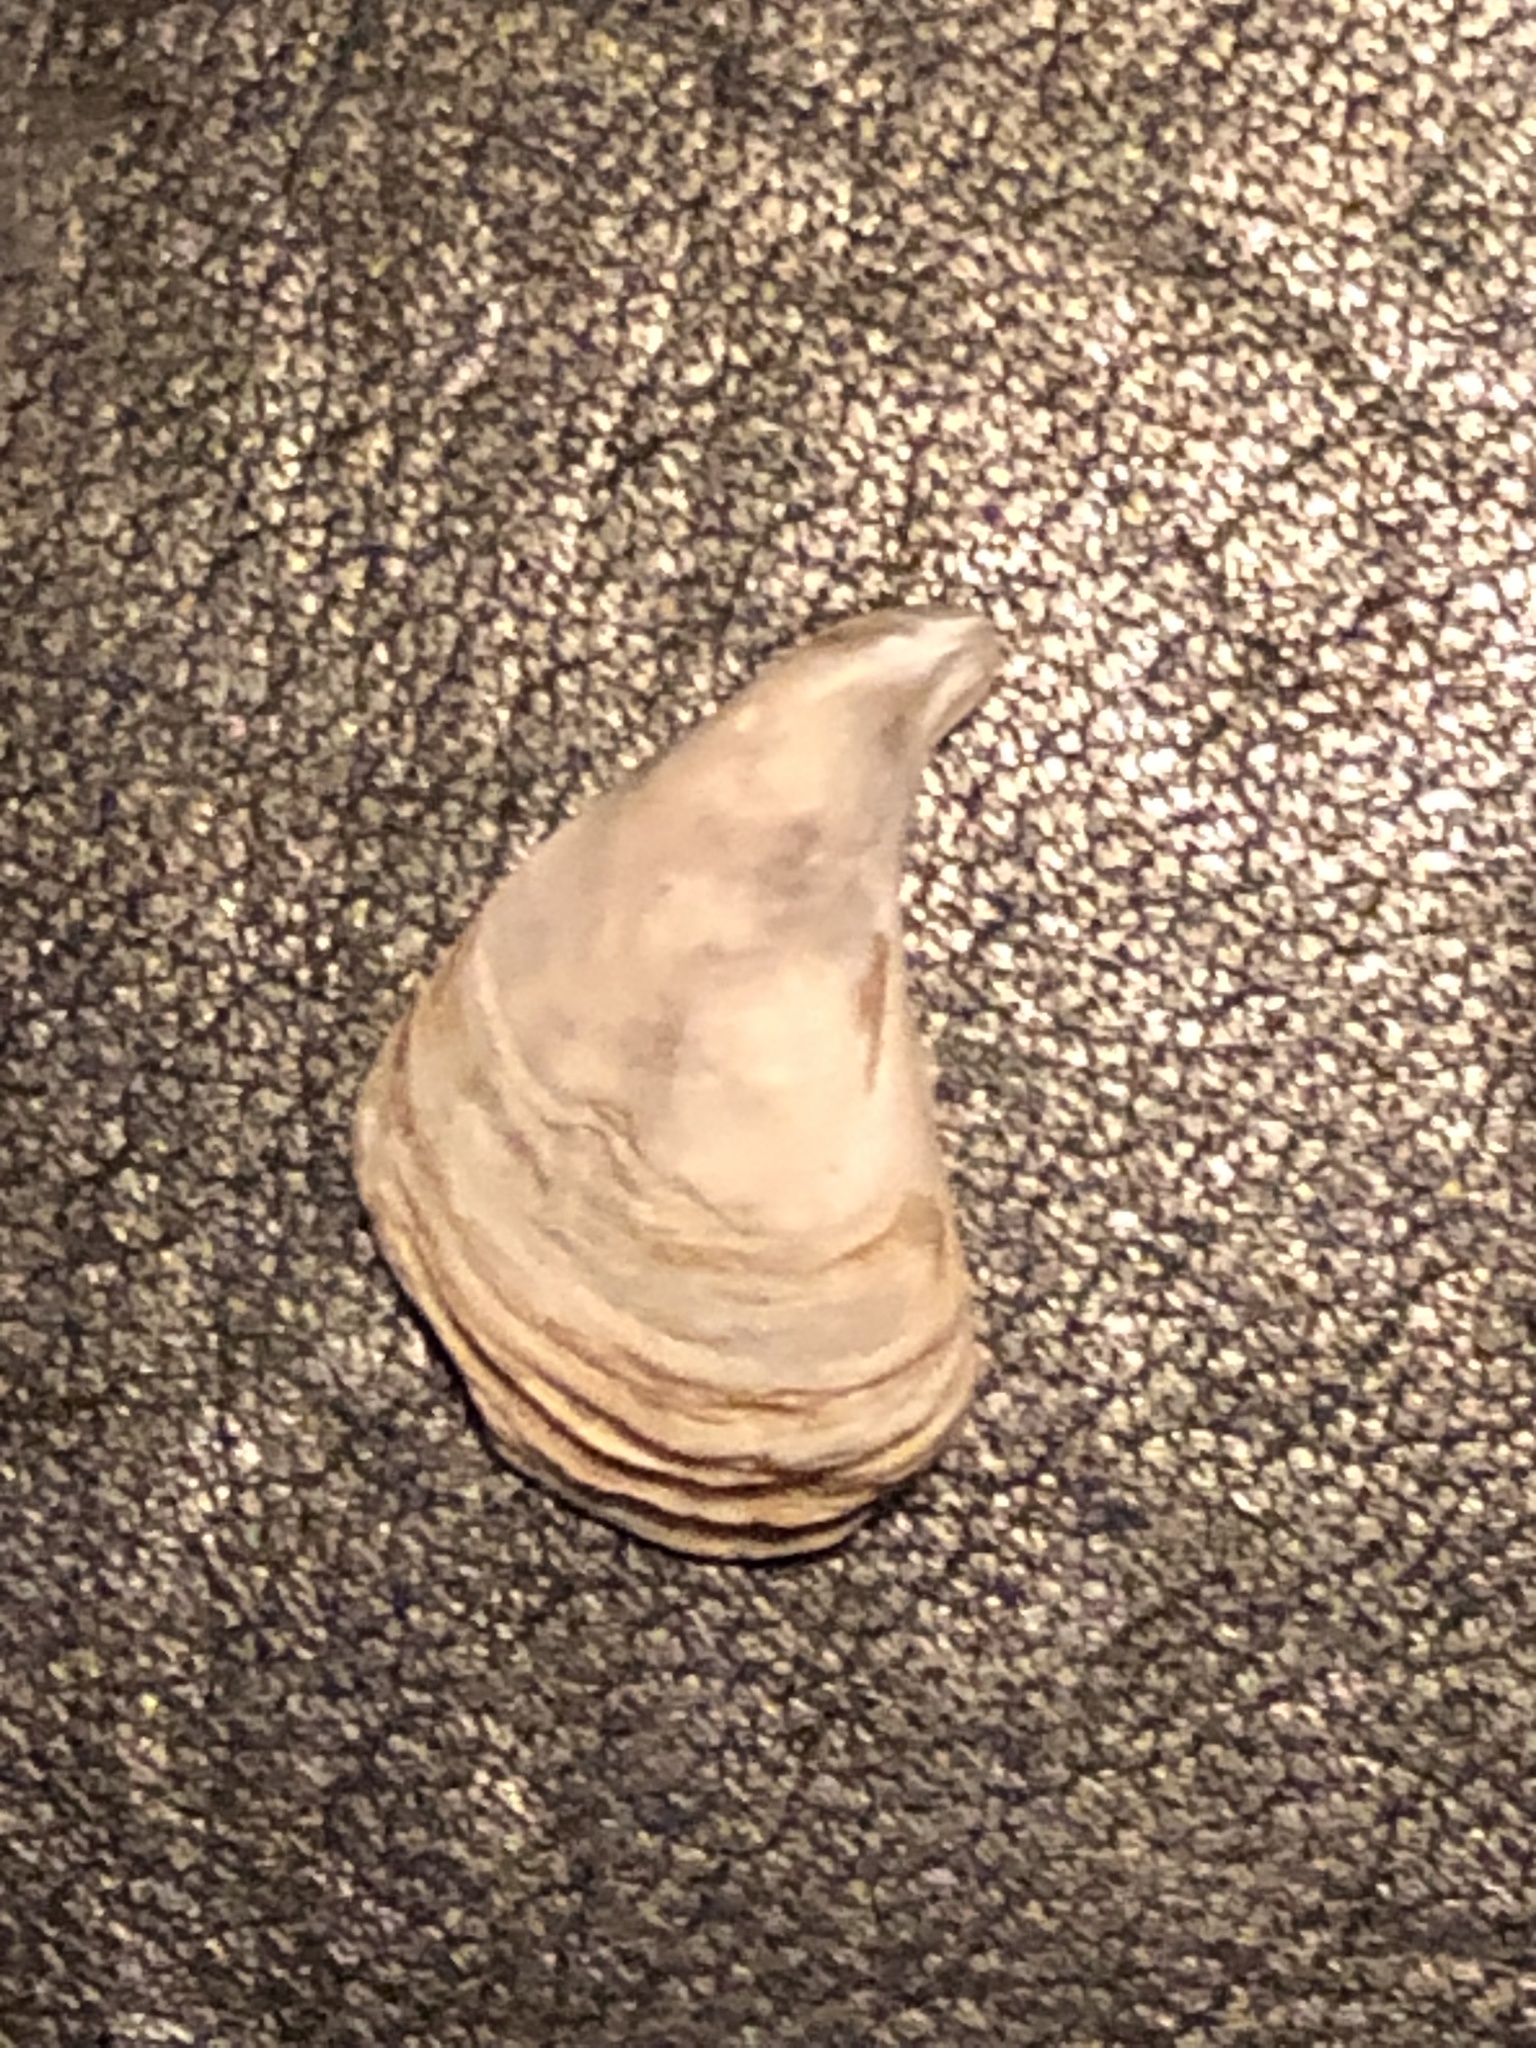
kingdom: Animalia
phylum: Mollusca
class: Bivalvia
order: Myida
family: Dreissenidae
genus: Dreissena
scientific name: Dreissena bugensis
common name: Quagga mussel
